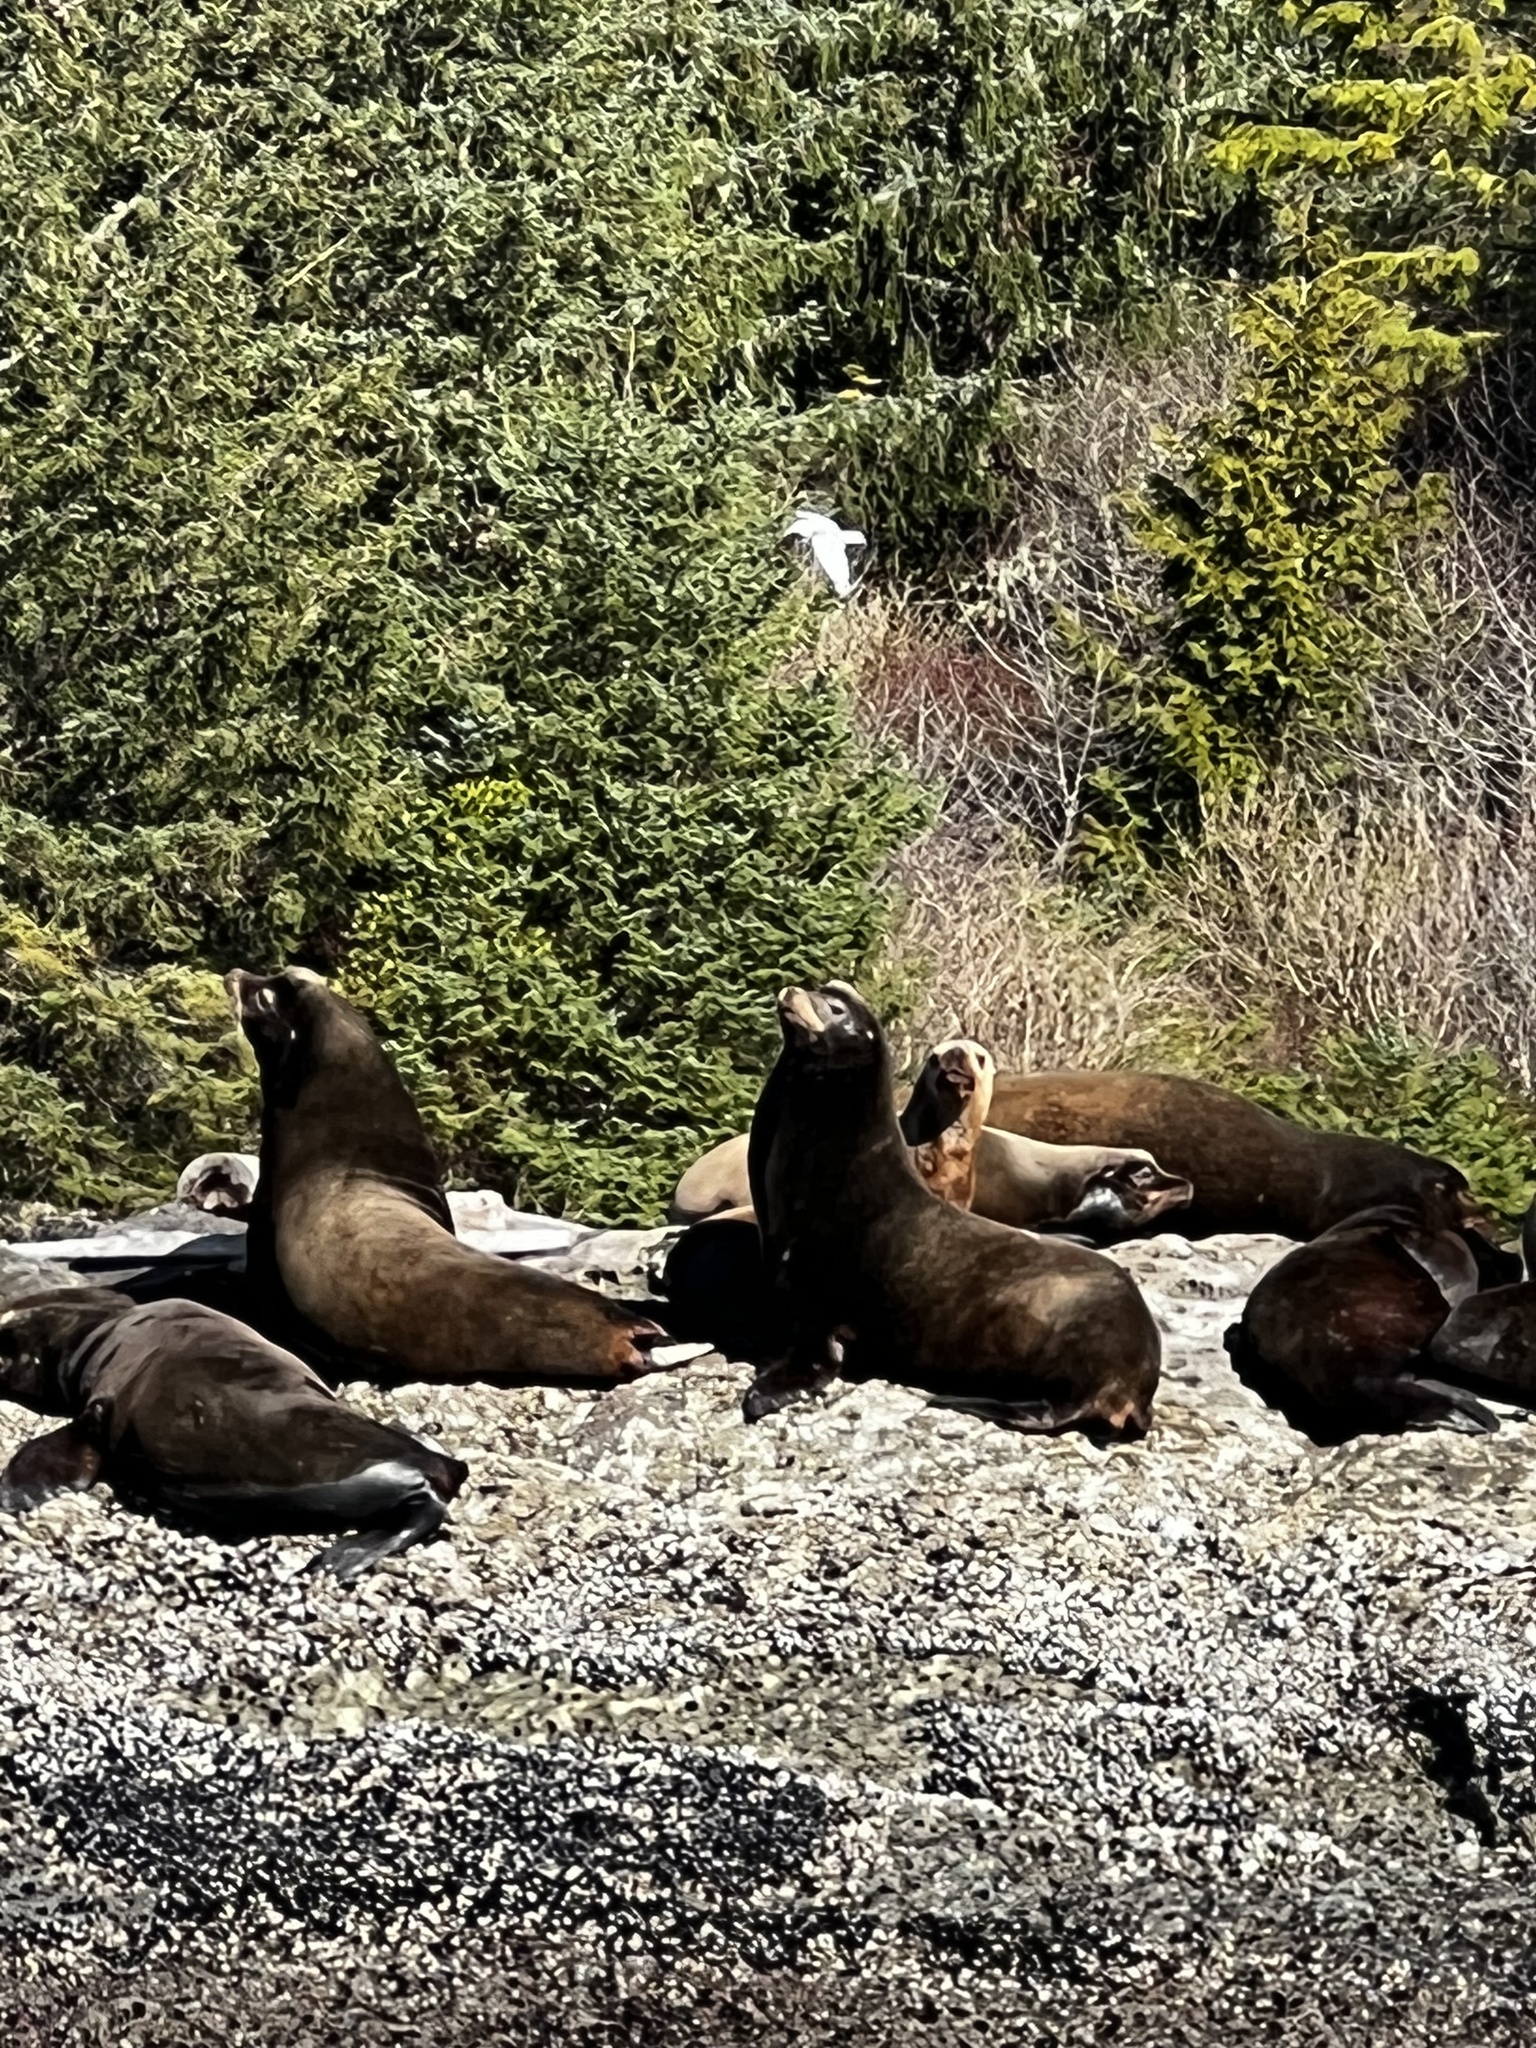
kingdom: Animalia
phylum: Chordata
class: Mammalia
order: Carnivora
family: Otariidae
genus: Zalophus
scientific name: Zalophus californianus
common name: California sea lion
